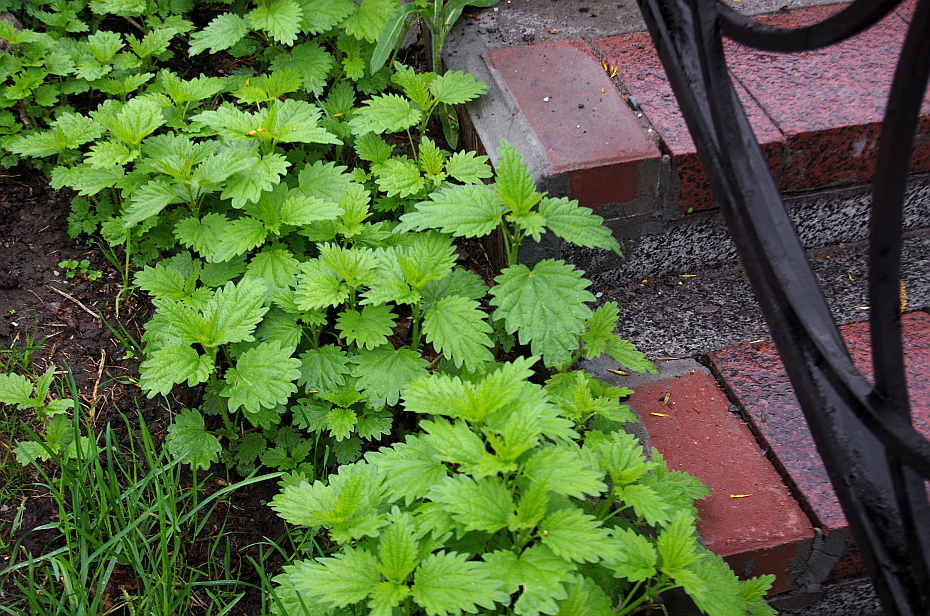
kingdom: Plantae
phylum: Tracheophyta
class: Magnoliopsida
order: Rosales
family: Urticaceae
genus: Urtica
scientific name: Urtica dioica
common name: Common nettle
